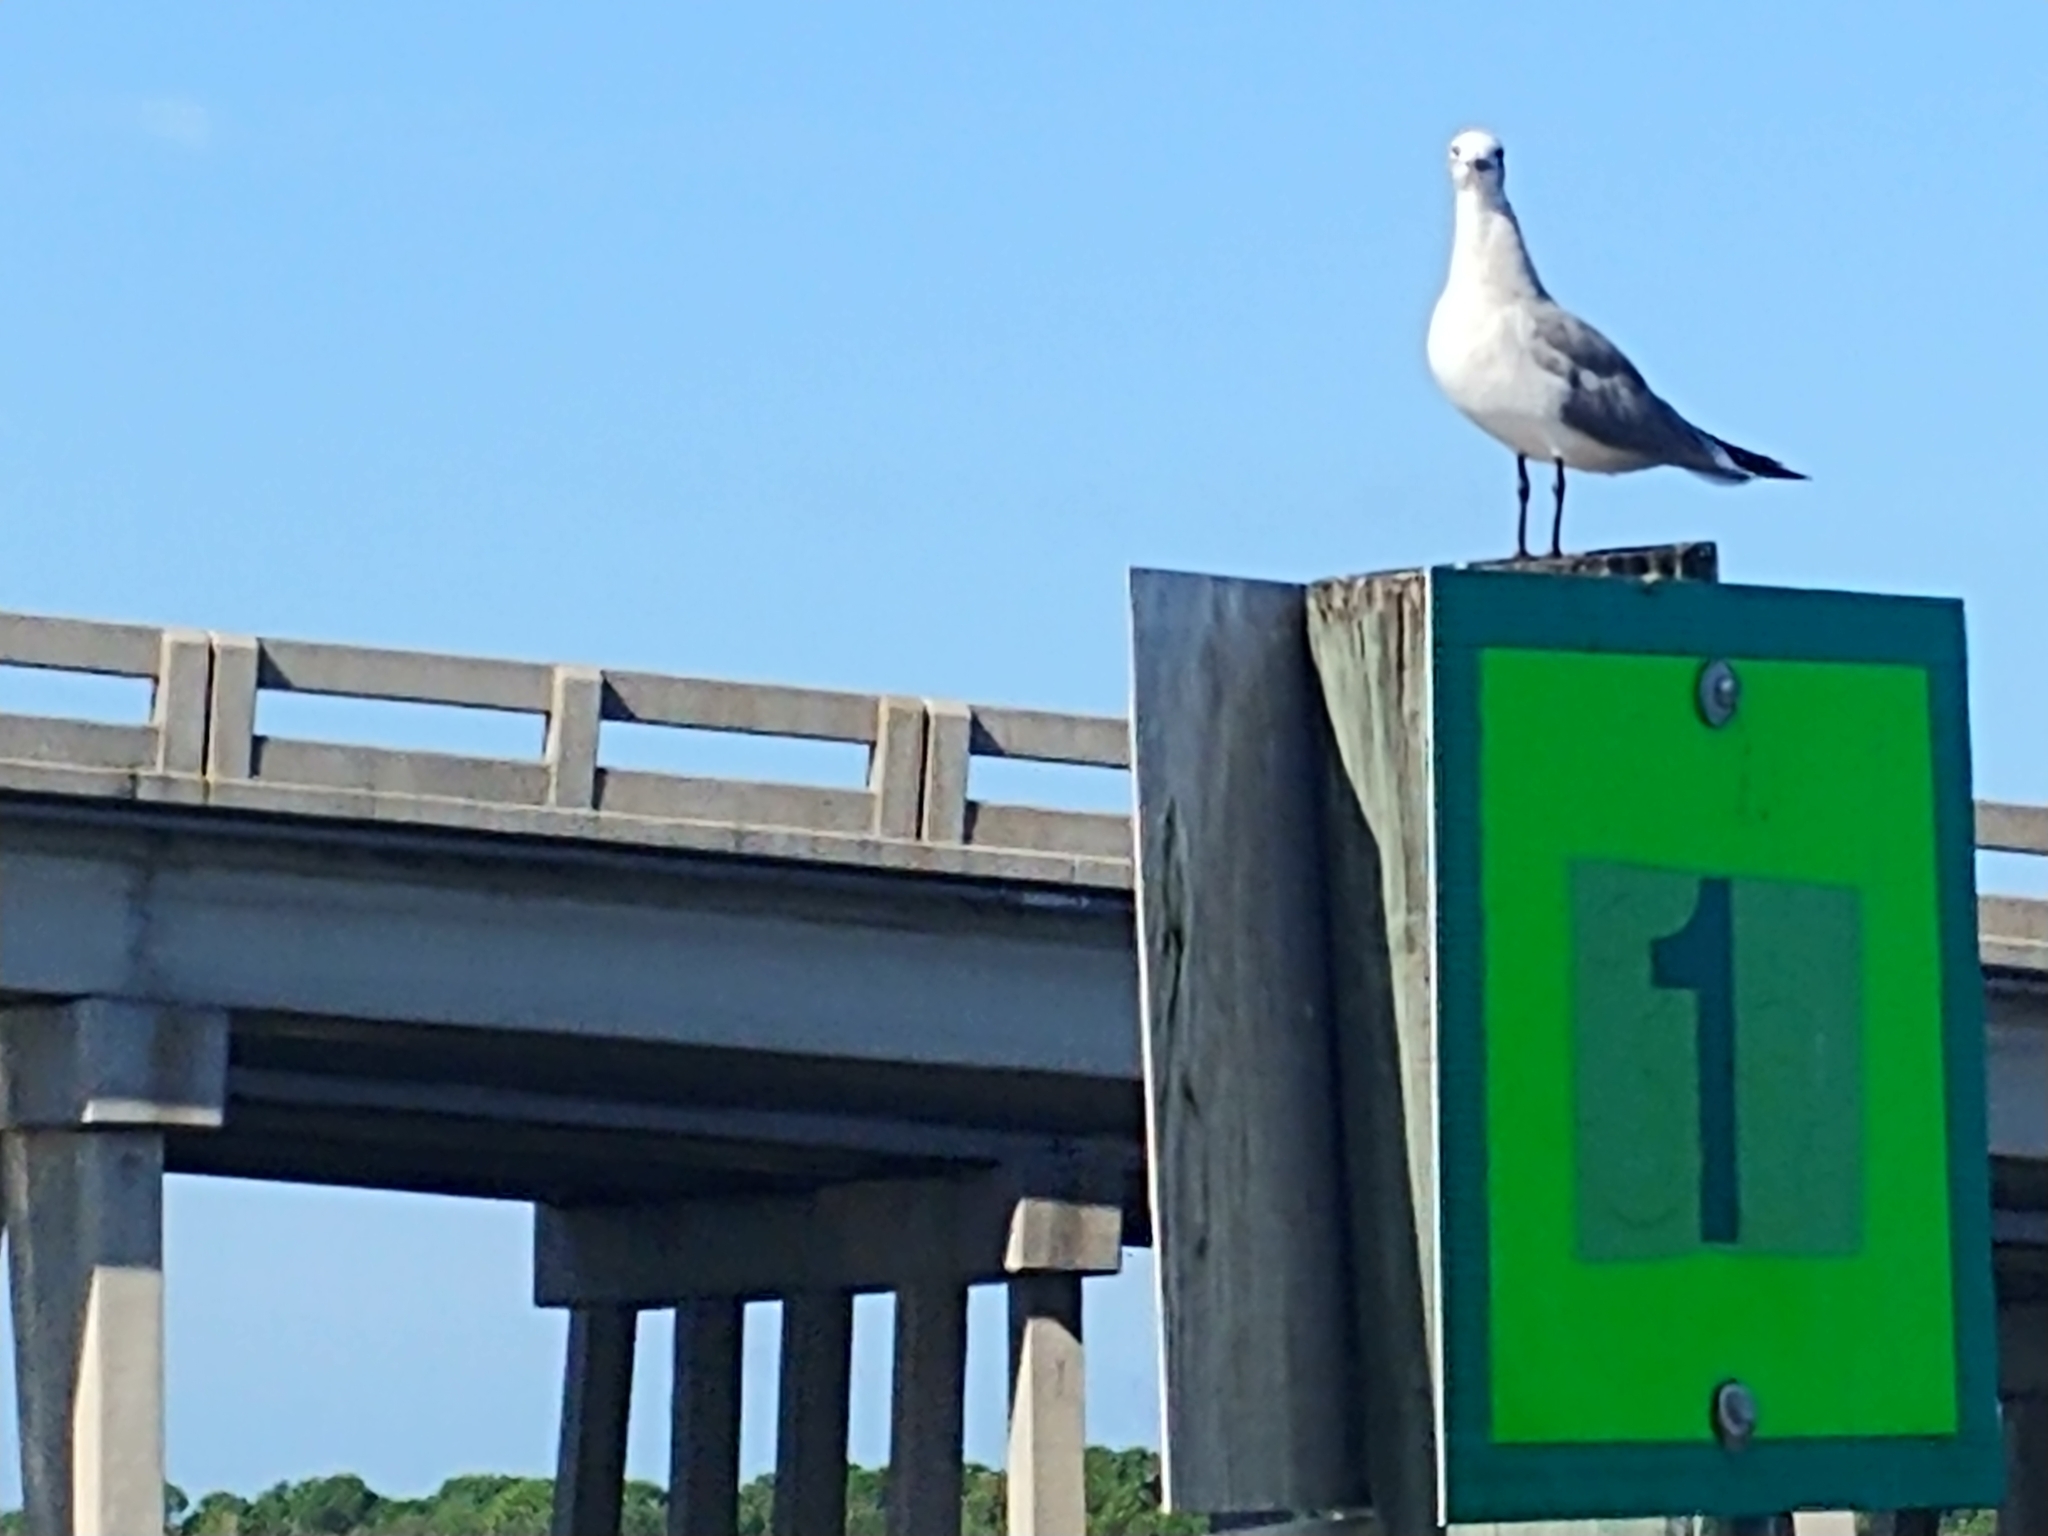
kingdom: Animalia
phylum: Chordata
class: Aves
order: Charadriiformes
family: Laridae
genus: Leucophaeus
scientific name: Leucophaeus atricilla
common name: Laughing gull
